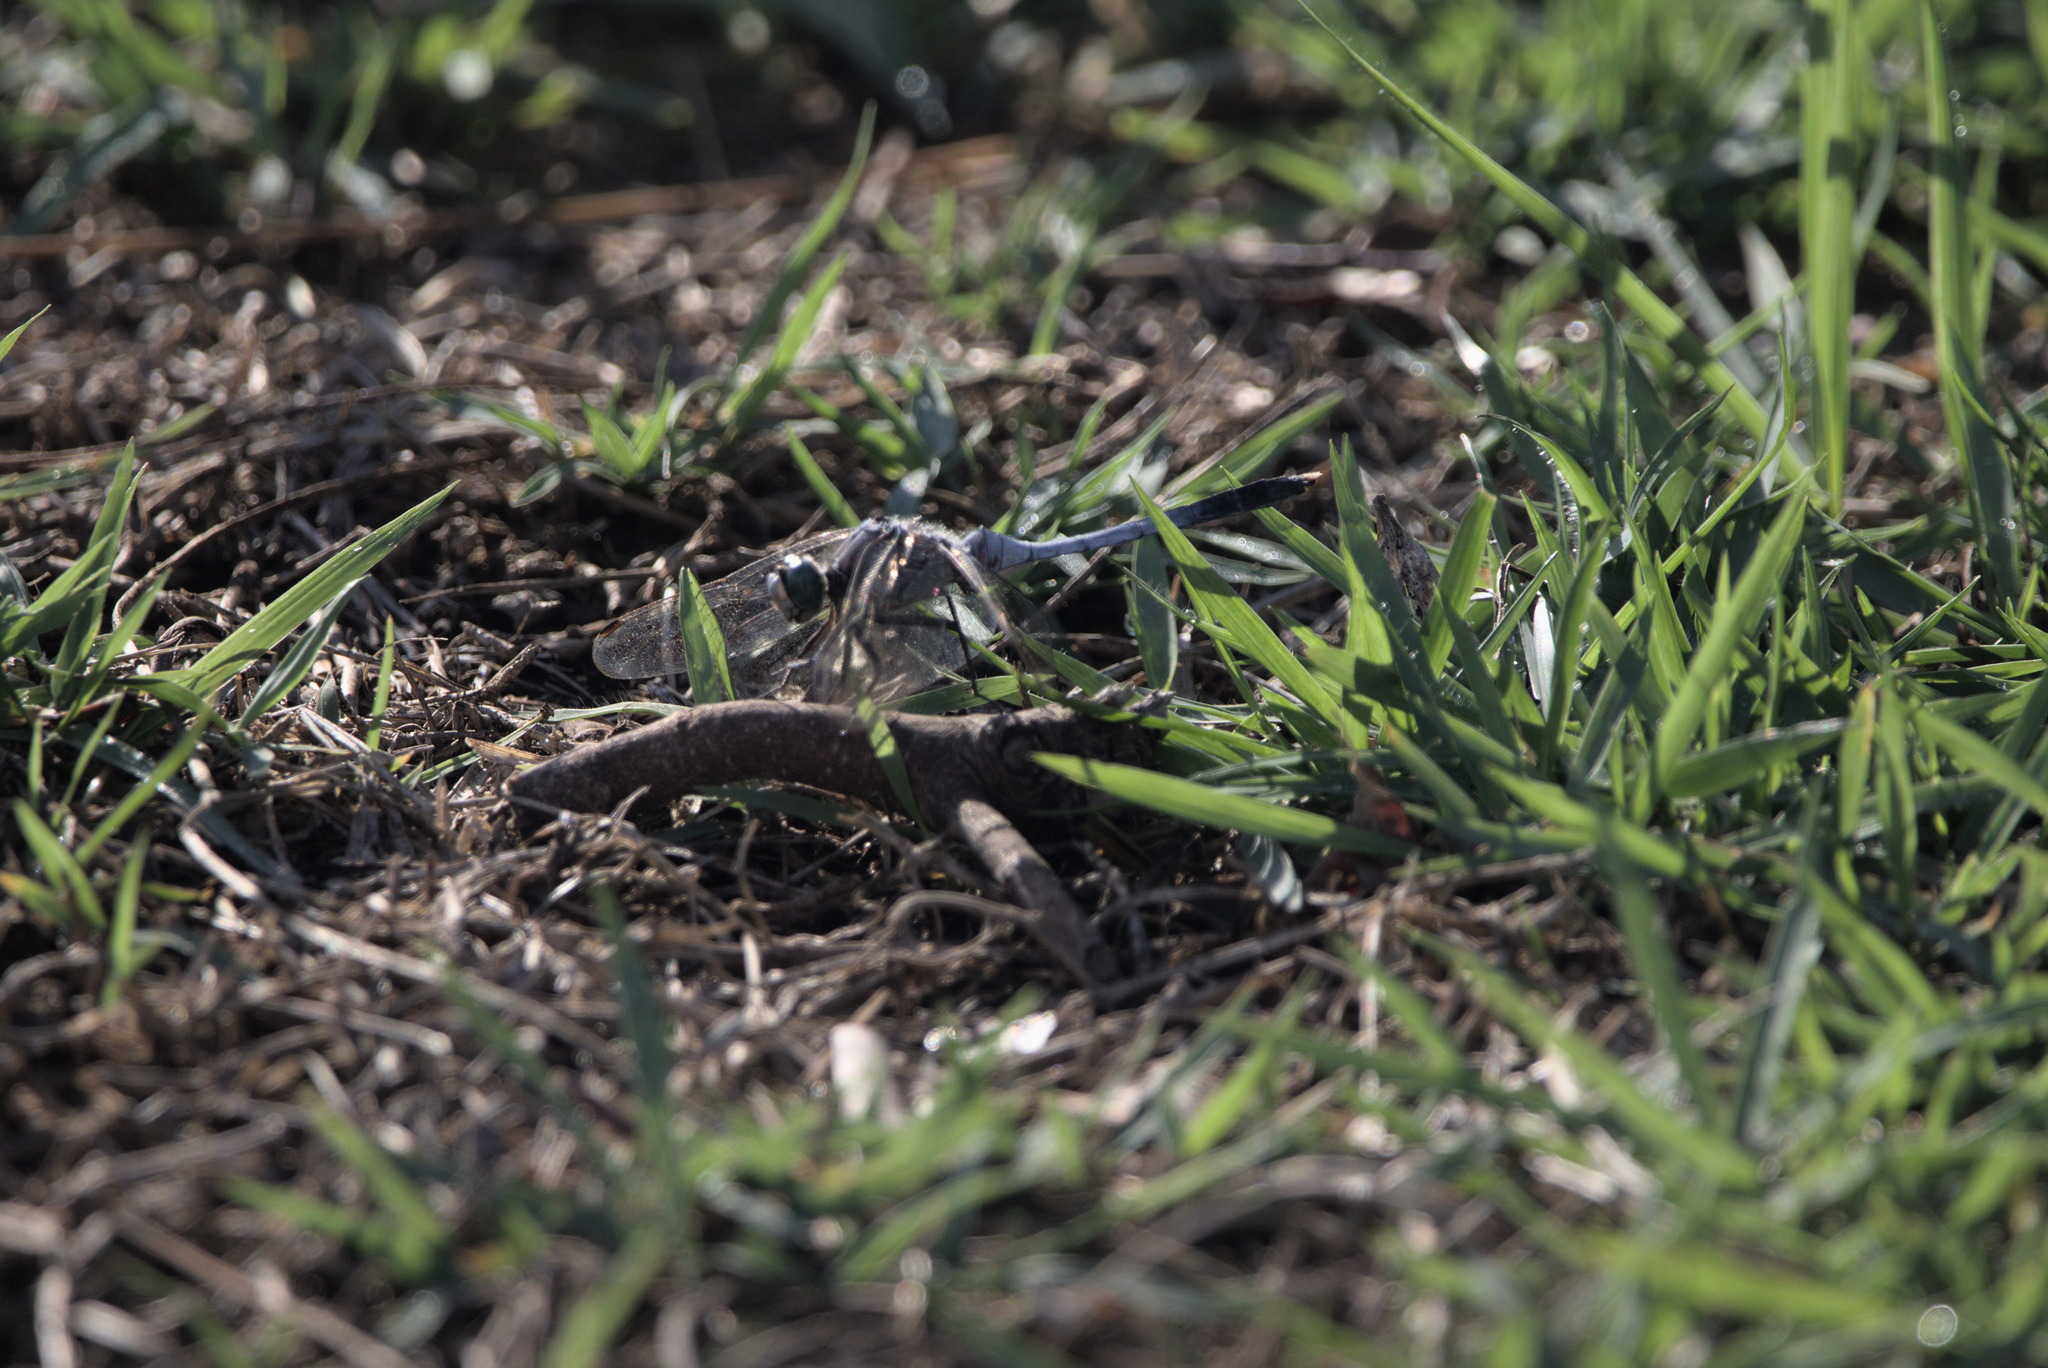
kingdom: Animalia
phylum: Arthropoda
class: Insecta
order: Odonata
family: Libellulidae
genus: Orthetrum
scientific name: Orthetrum albistylum
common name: White-tailed skimmer
